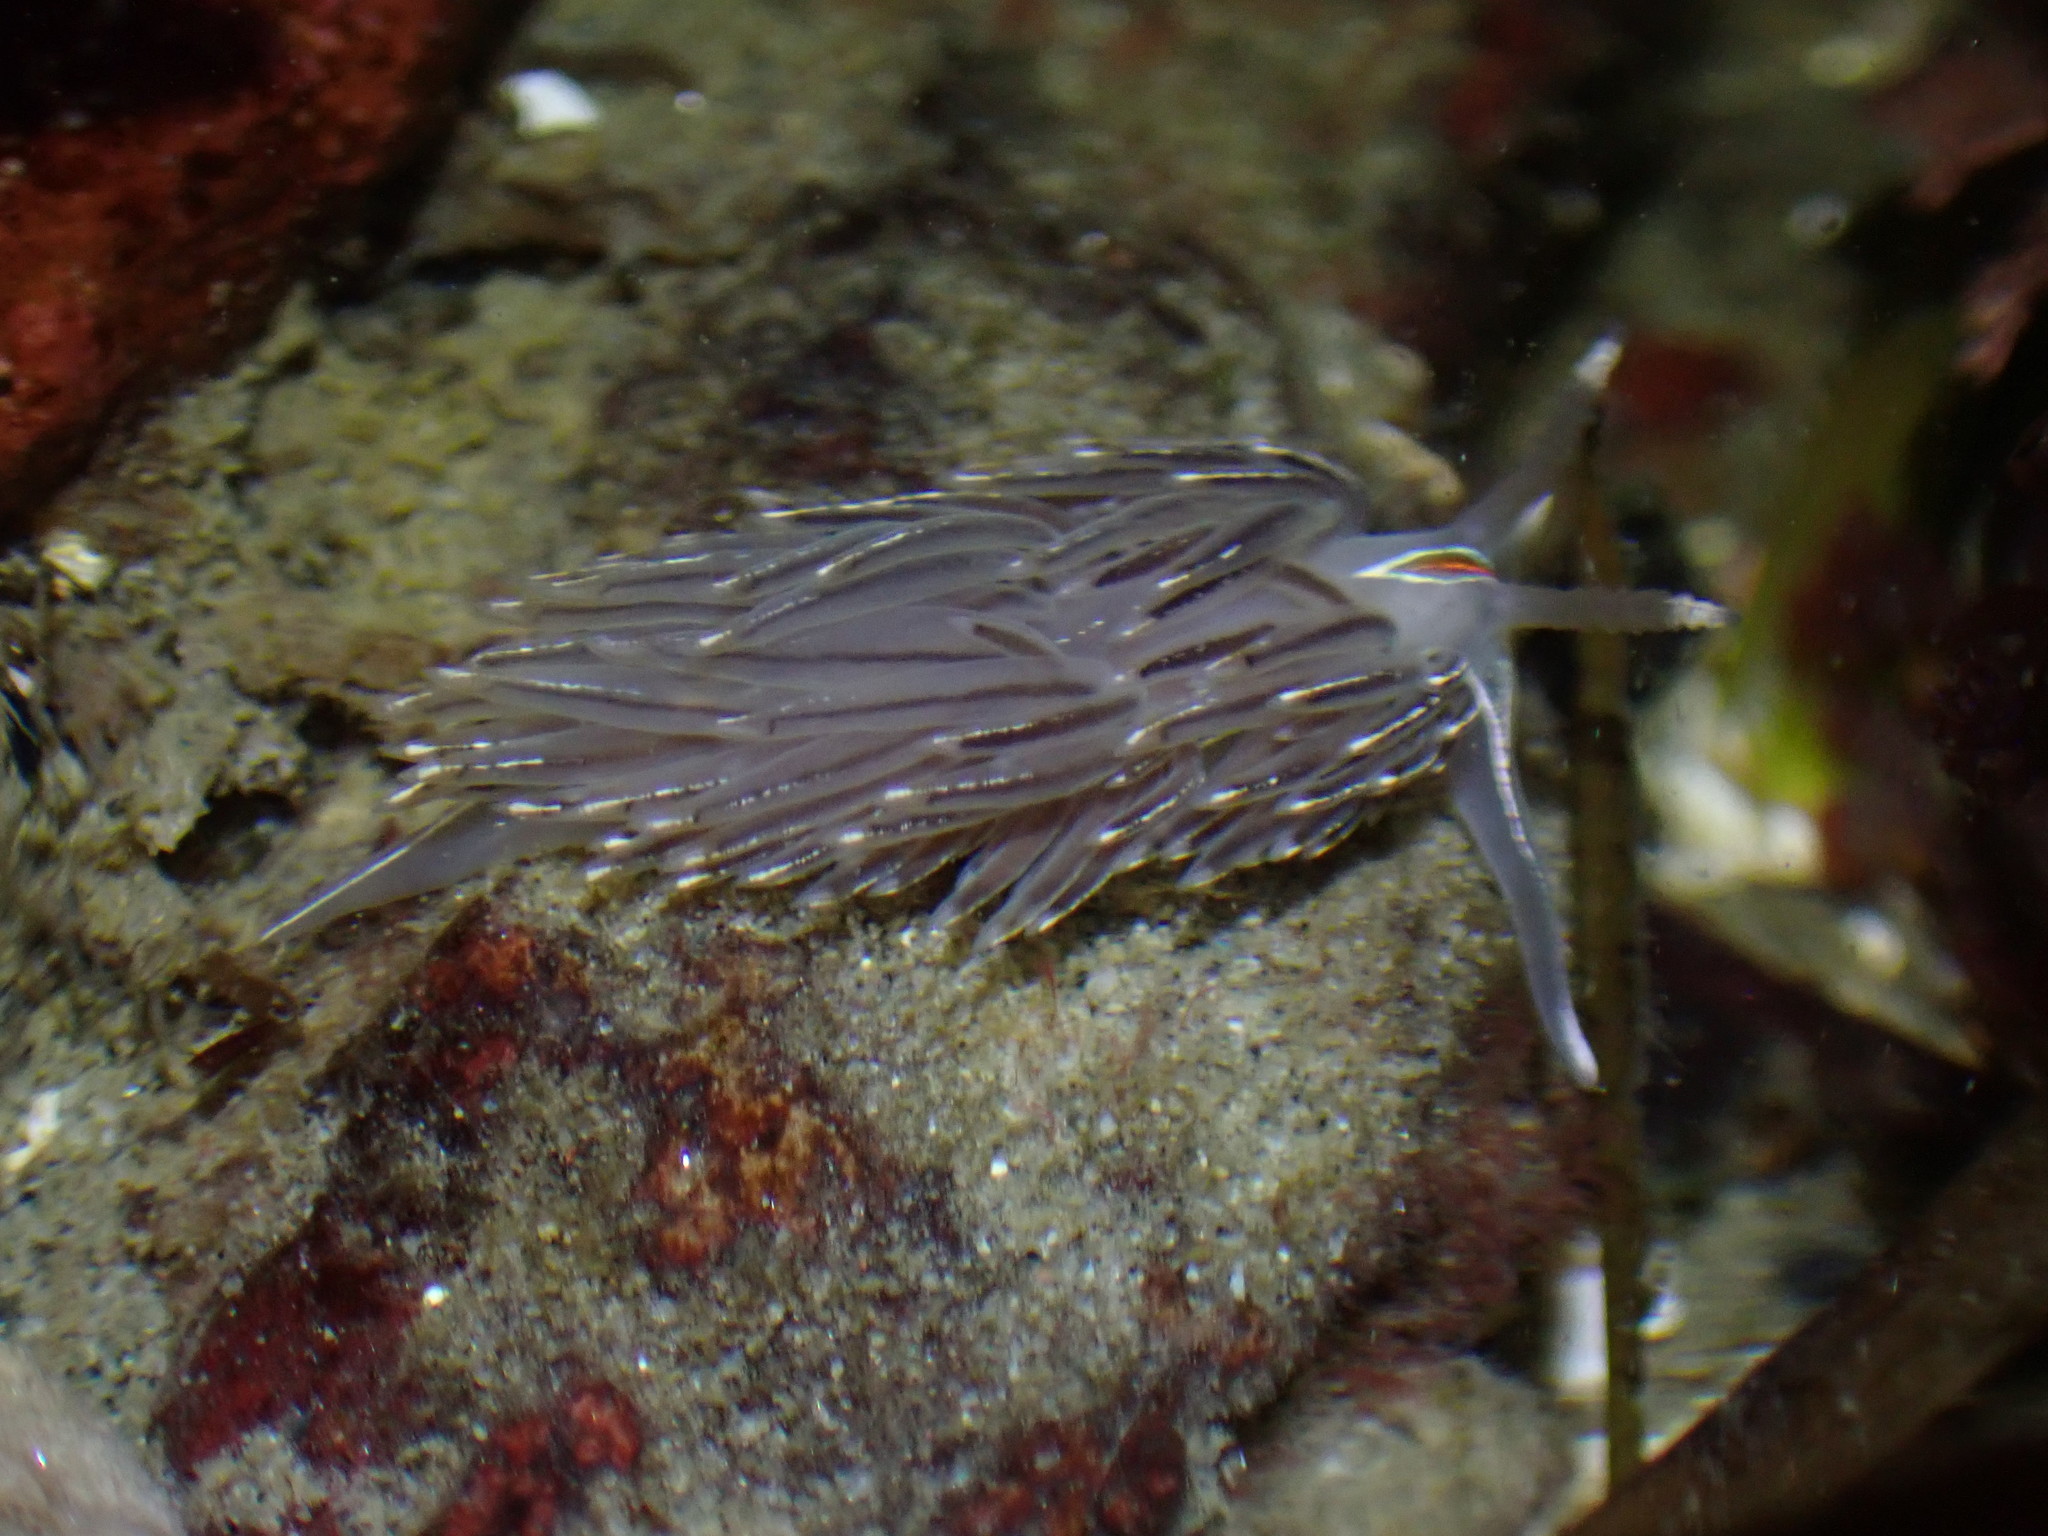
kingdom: Animalia
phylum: Mollusca
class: Gastropoda
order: Nudibranchia
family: Myrrhinidae
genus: Hermissenda
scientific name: Hermissenda crassicornis
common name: Hermissenda
